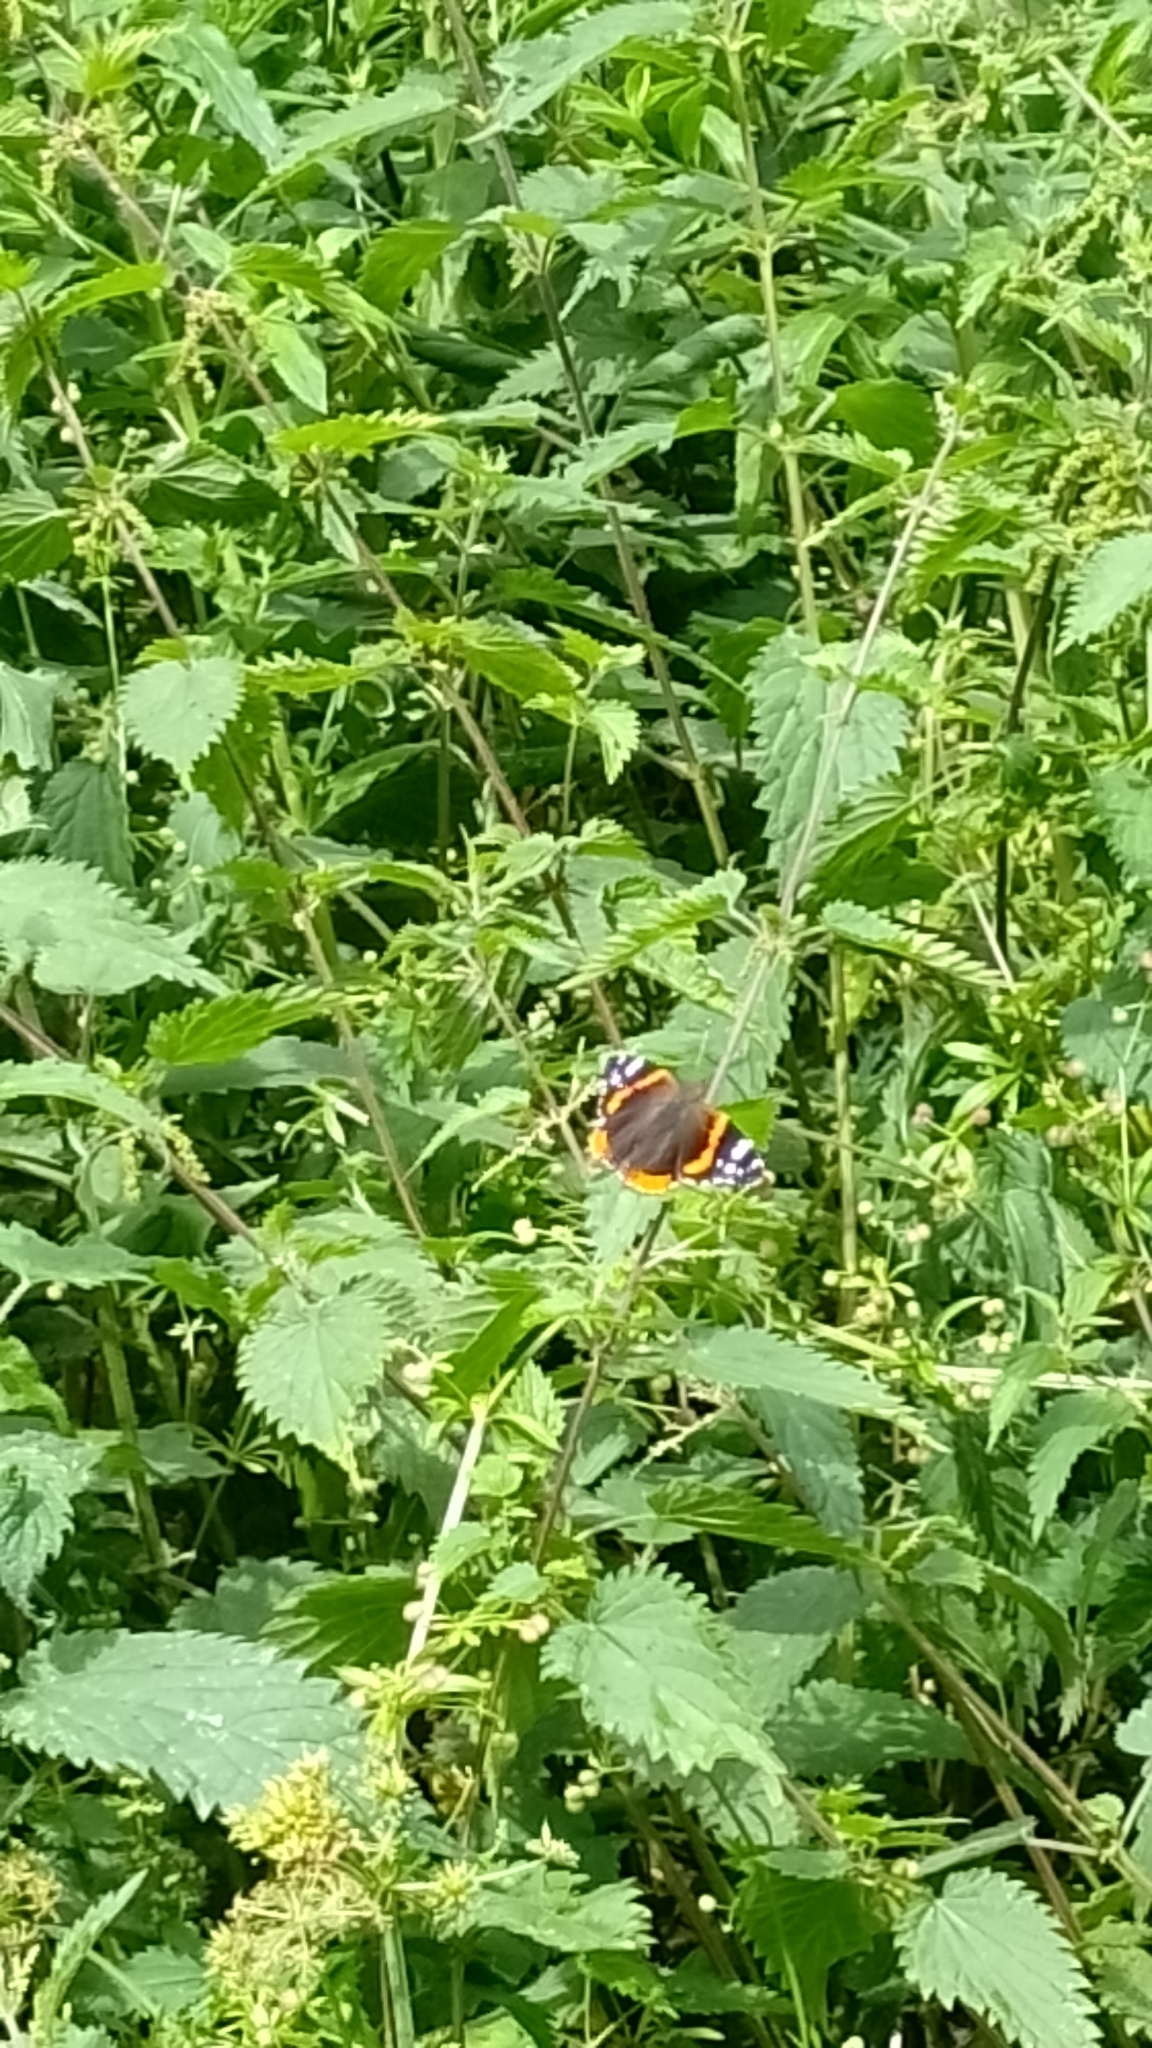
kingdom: Animalia
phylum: Arthropoda
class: Insecta
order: Lepidoptera
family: Nymphalidae
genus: Vanessa
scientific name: Vanessa atalanta
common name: Red admiral
